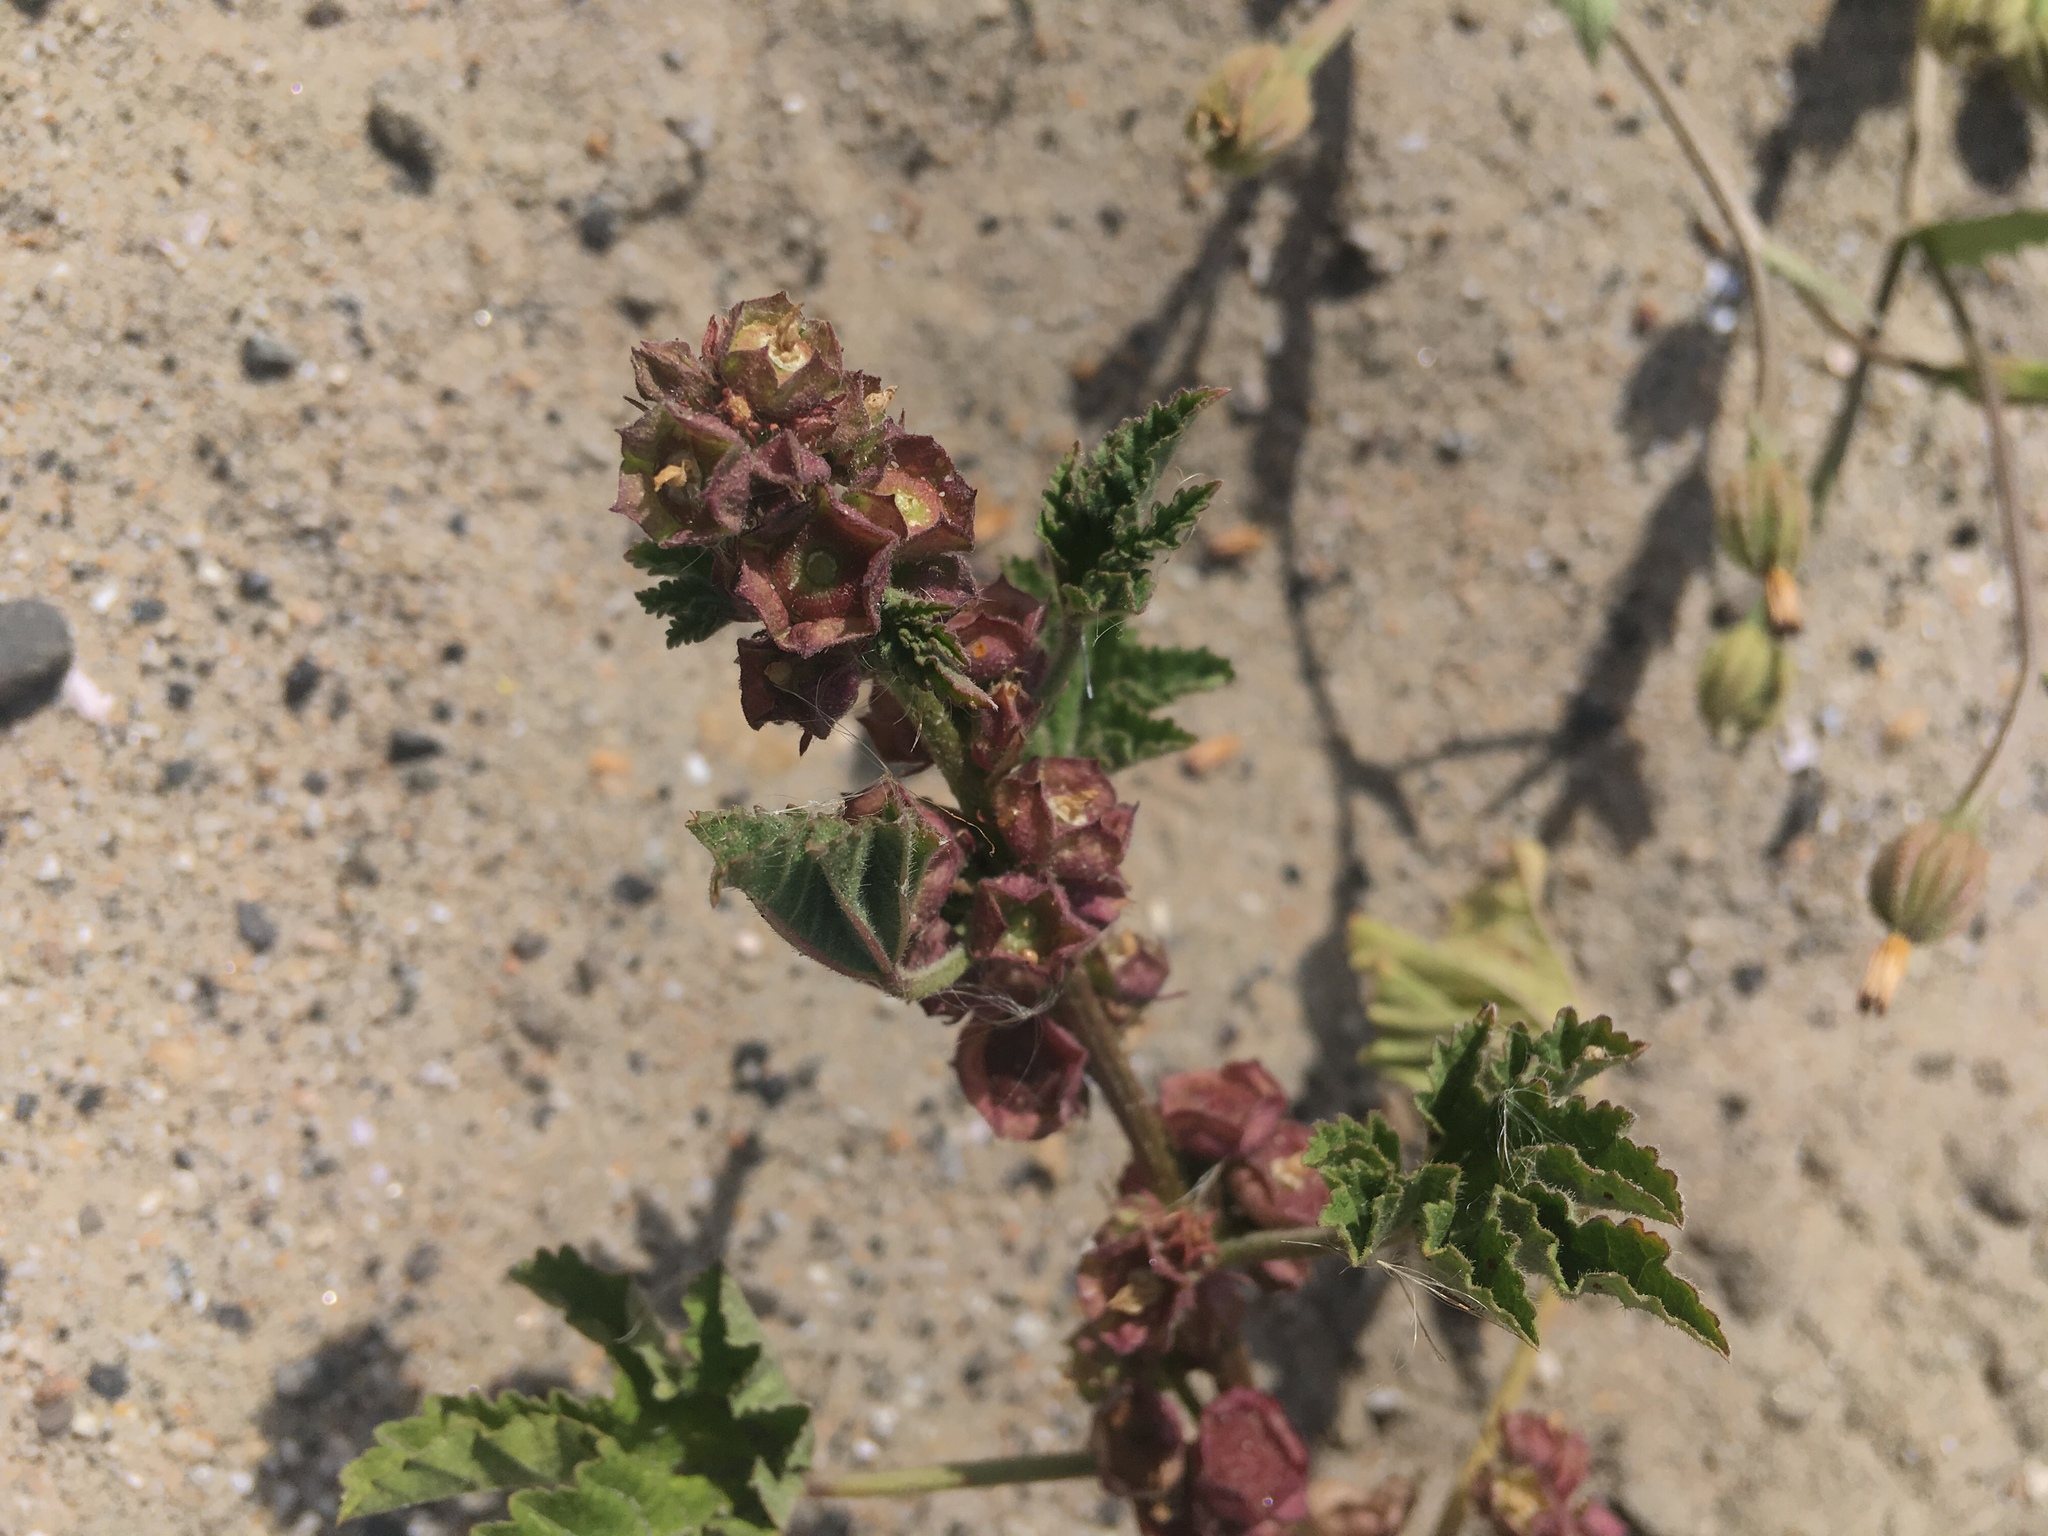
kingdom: Plantae
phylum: Tracheophyta
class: Magnoliopsida
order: Malvales
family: Malvaceae
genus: Malva
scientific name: Malva parviflora
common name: Least mallow
